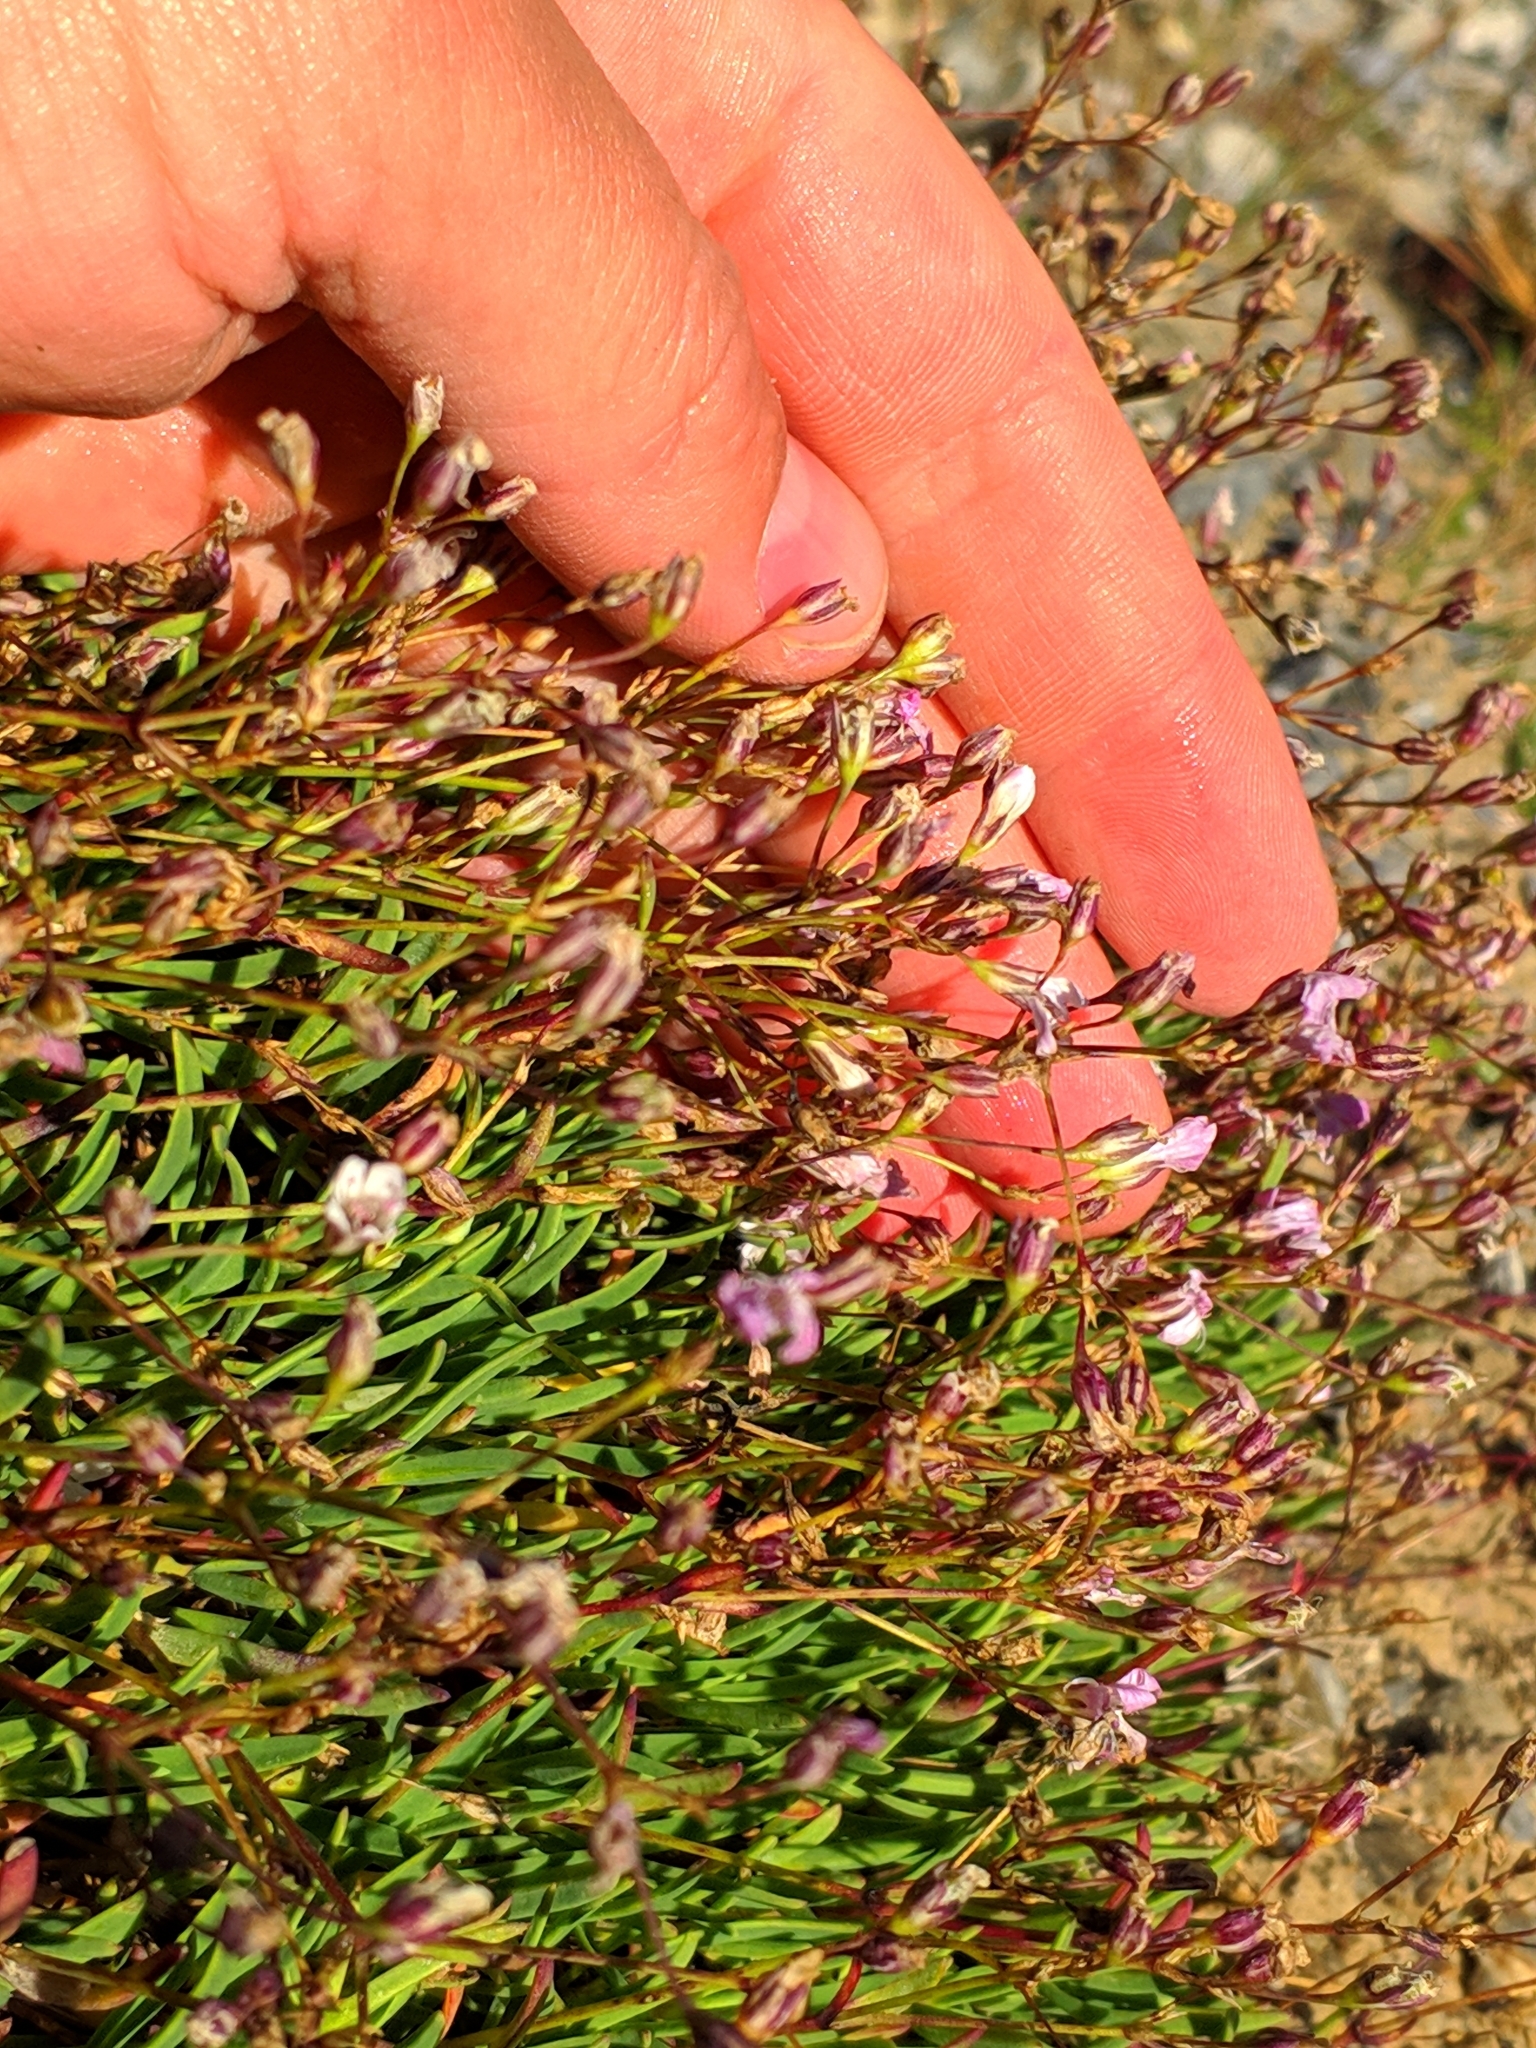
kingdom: Plantae
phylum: Tracheophyta
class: Magnoliopsida
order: Caryophyllales
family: Caryophyllaceae
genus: Gypsophila
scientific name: Gypsophila repens
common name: Creeping baby's-breath
